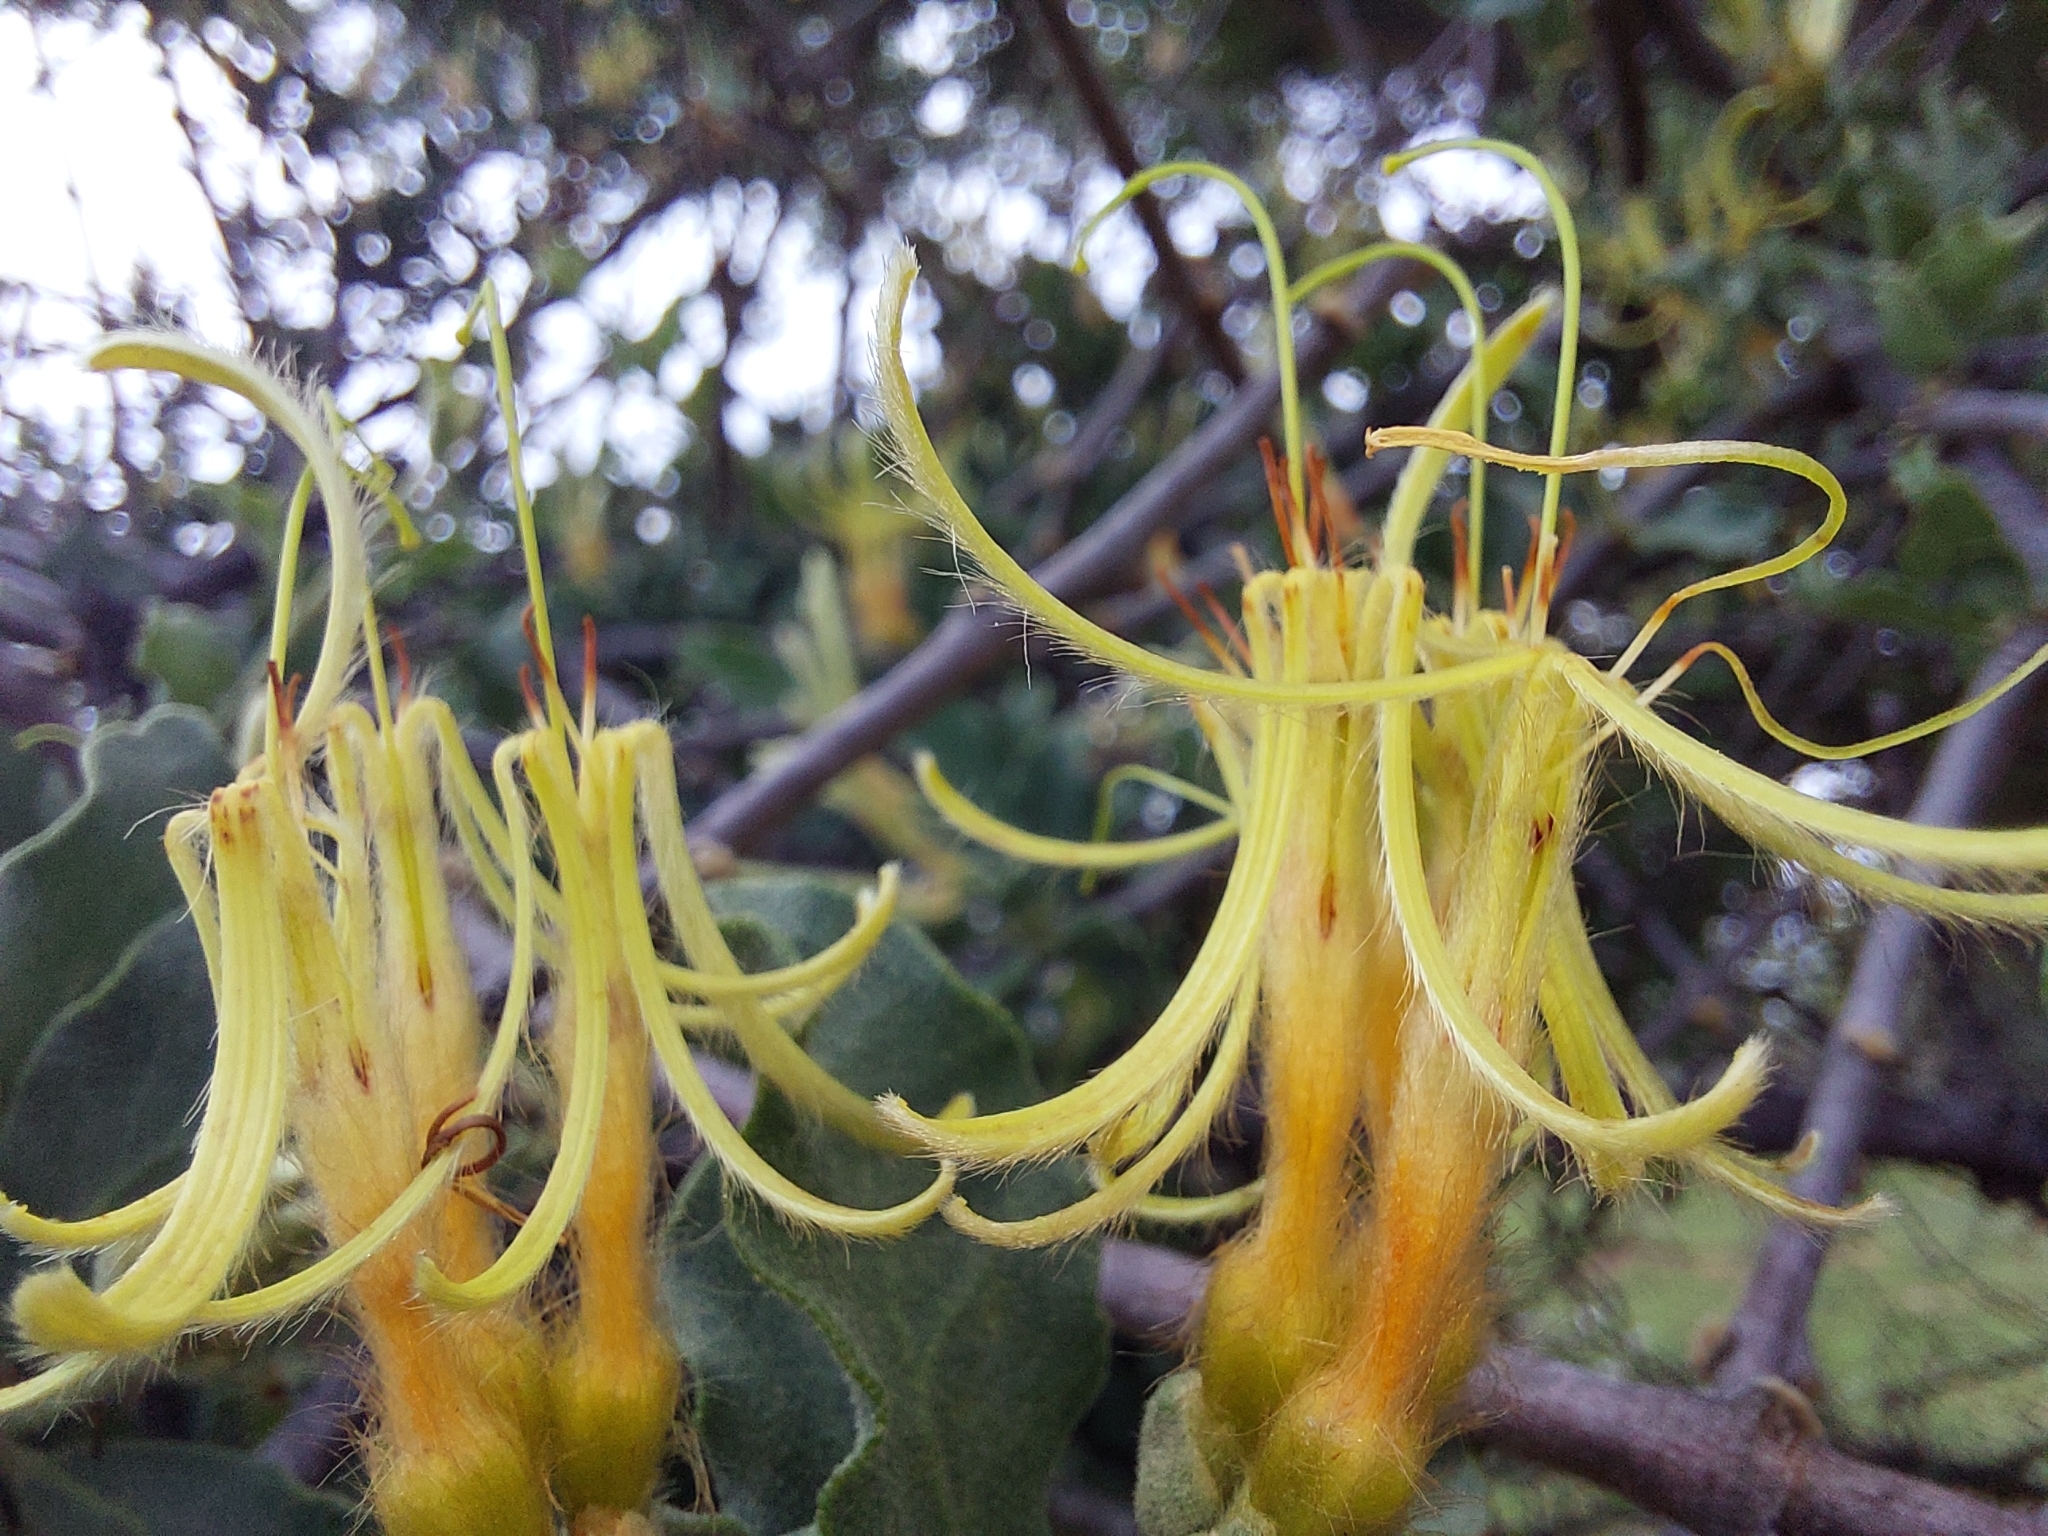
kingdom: Plantae
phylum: Tracheophyta
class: Magnoliopsida
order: Santalales
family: Loranthaceae
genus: Erianthemum
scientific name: Erianthemum ngamicum
